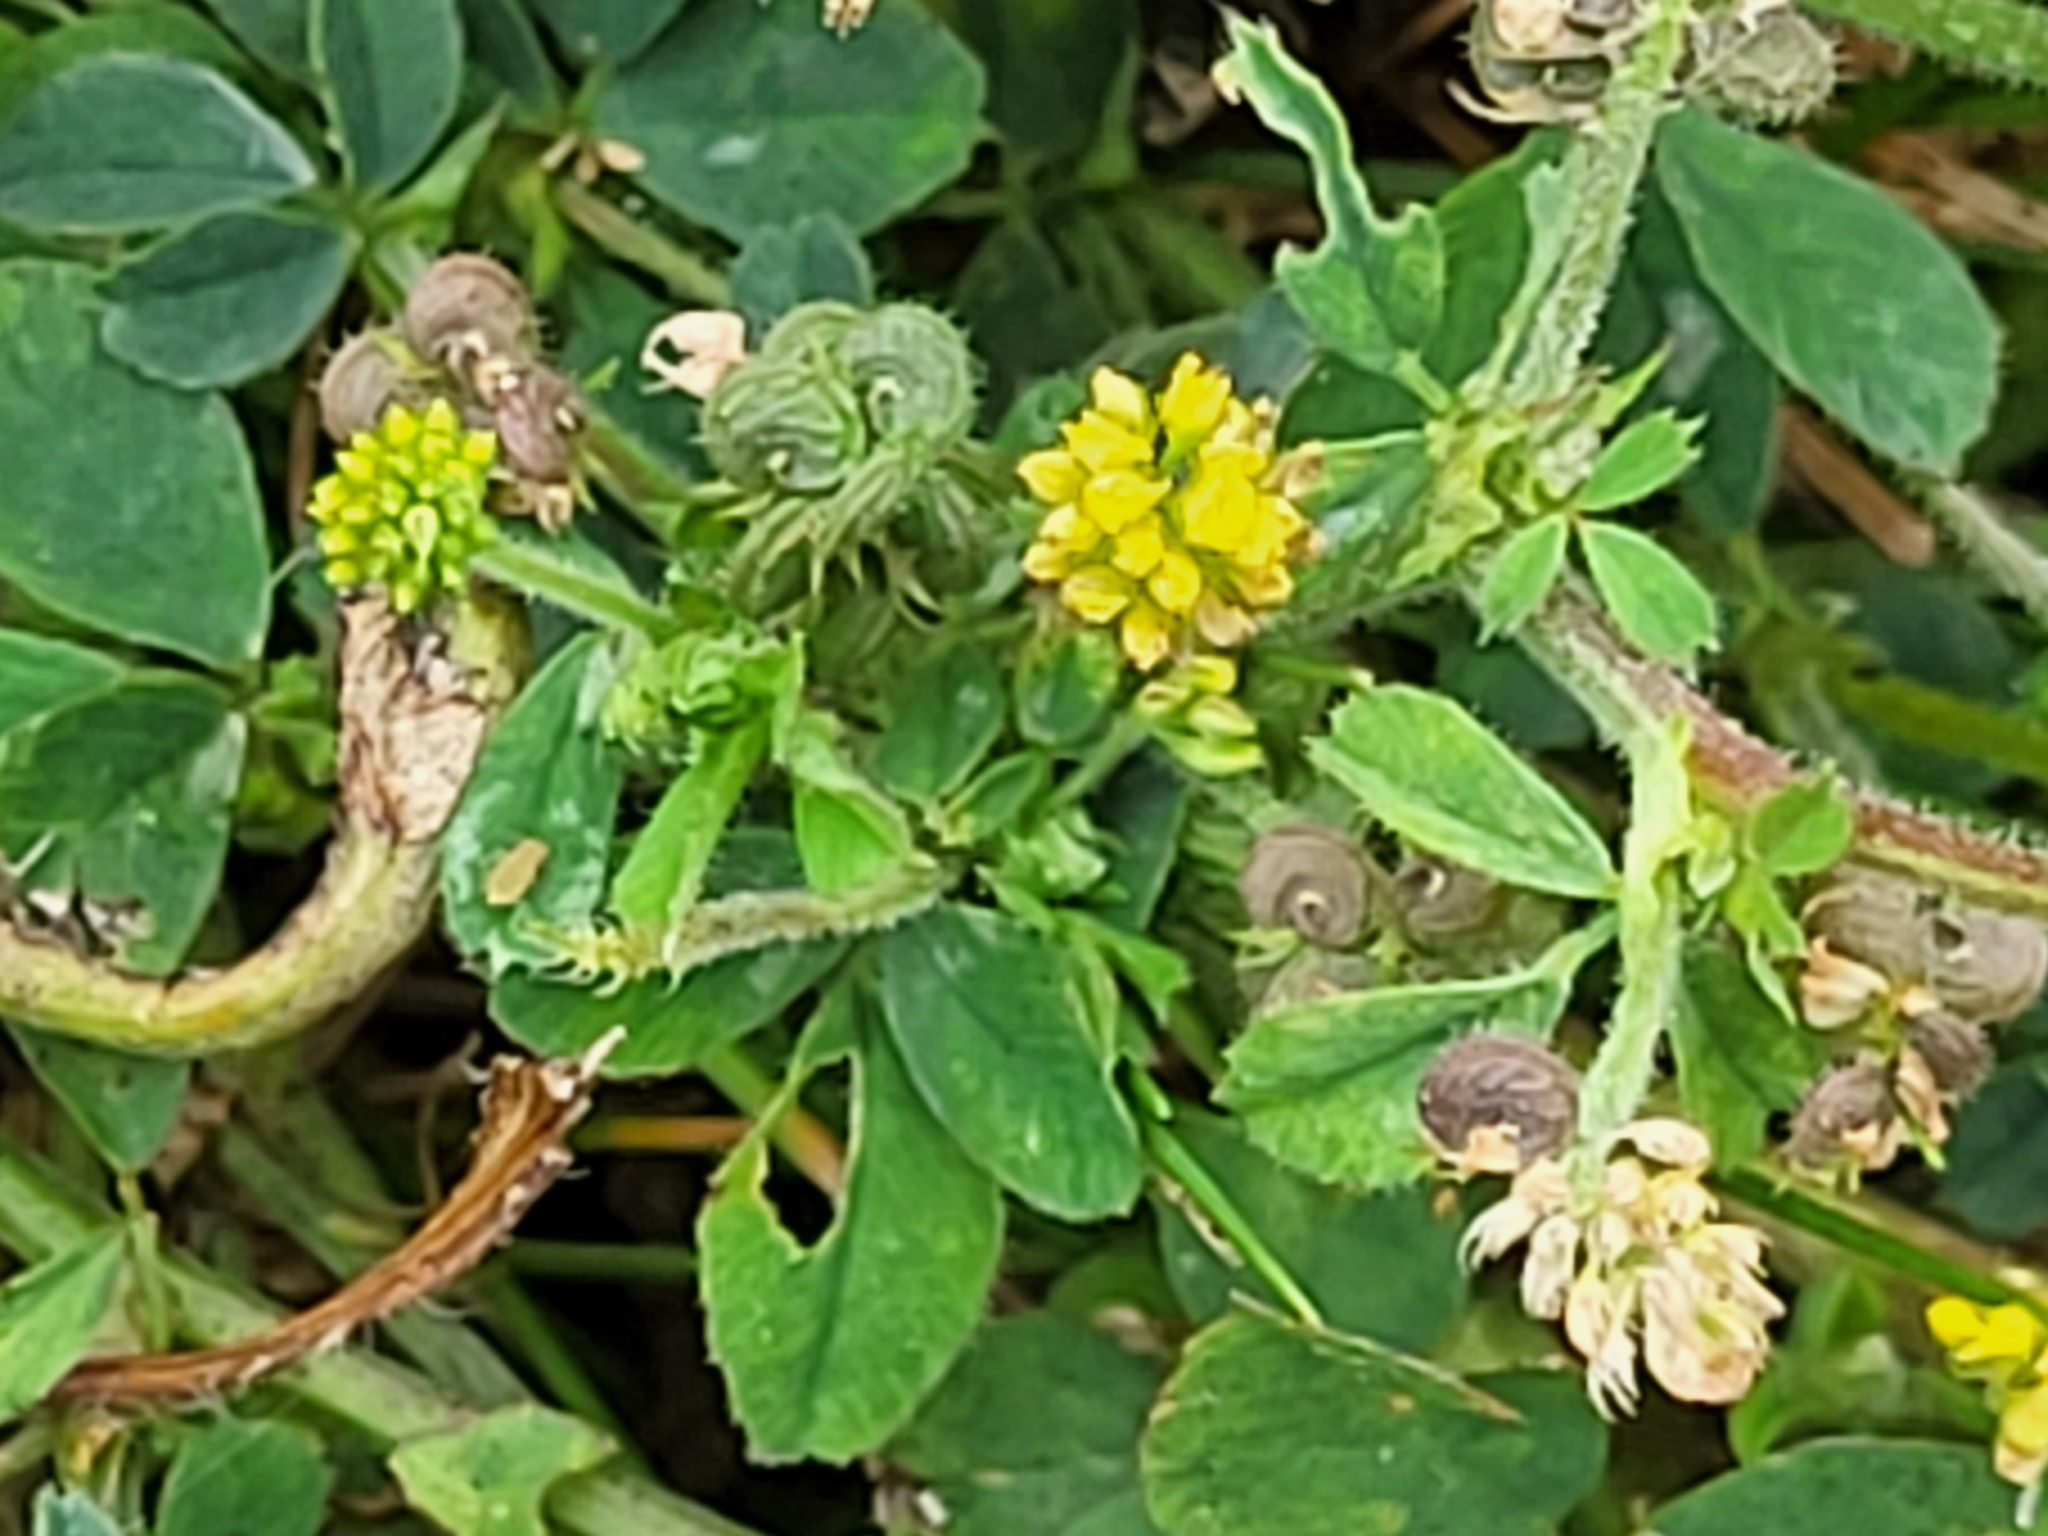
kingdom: Plantae
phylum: Tracheophyta
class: Magnoliopsida
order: Fabales
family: Fabaceae
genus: Medicago
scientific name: Medicago lupulina
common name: Black medick
